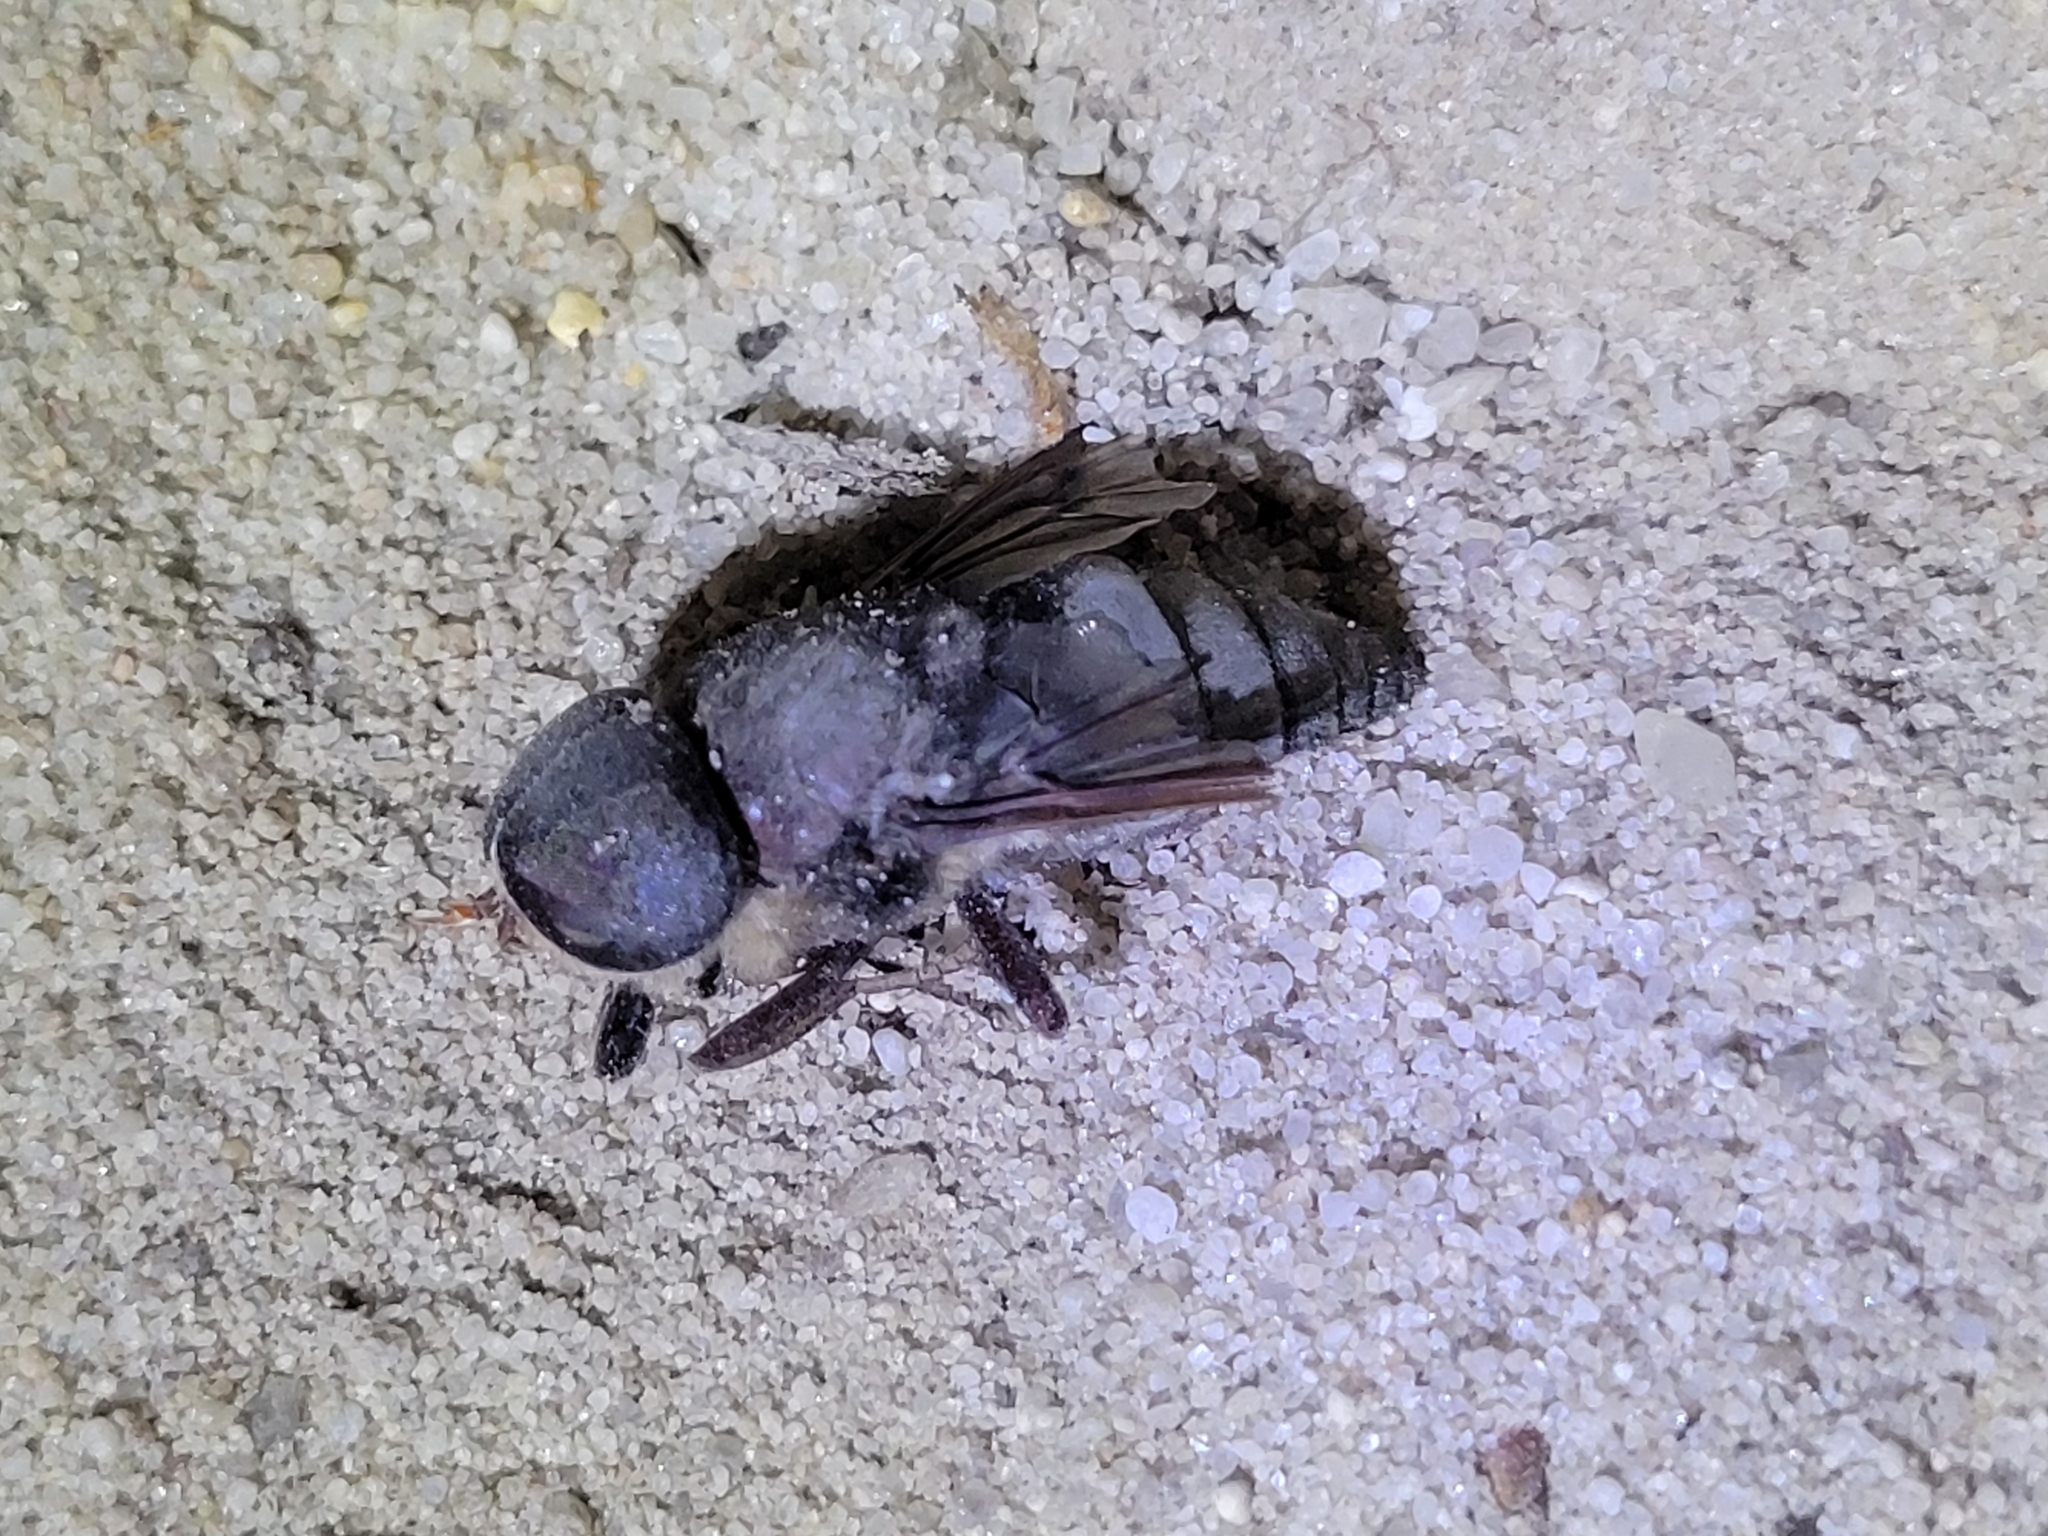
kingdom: Animalia
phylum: Arthropoda
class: Insecta
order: Diptera
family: Tabanidae
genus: Tabanus
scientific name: Tabanus atratus
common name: Black horse fly
